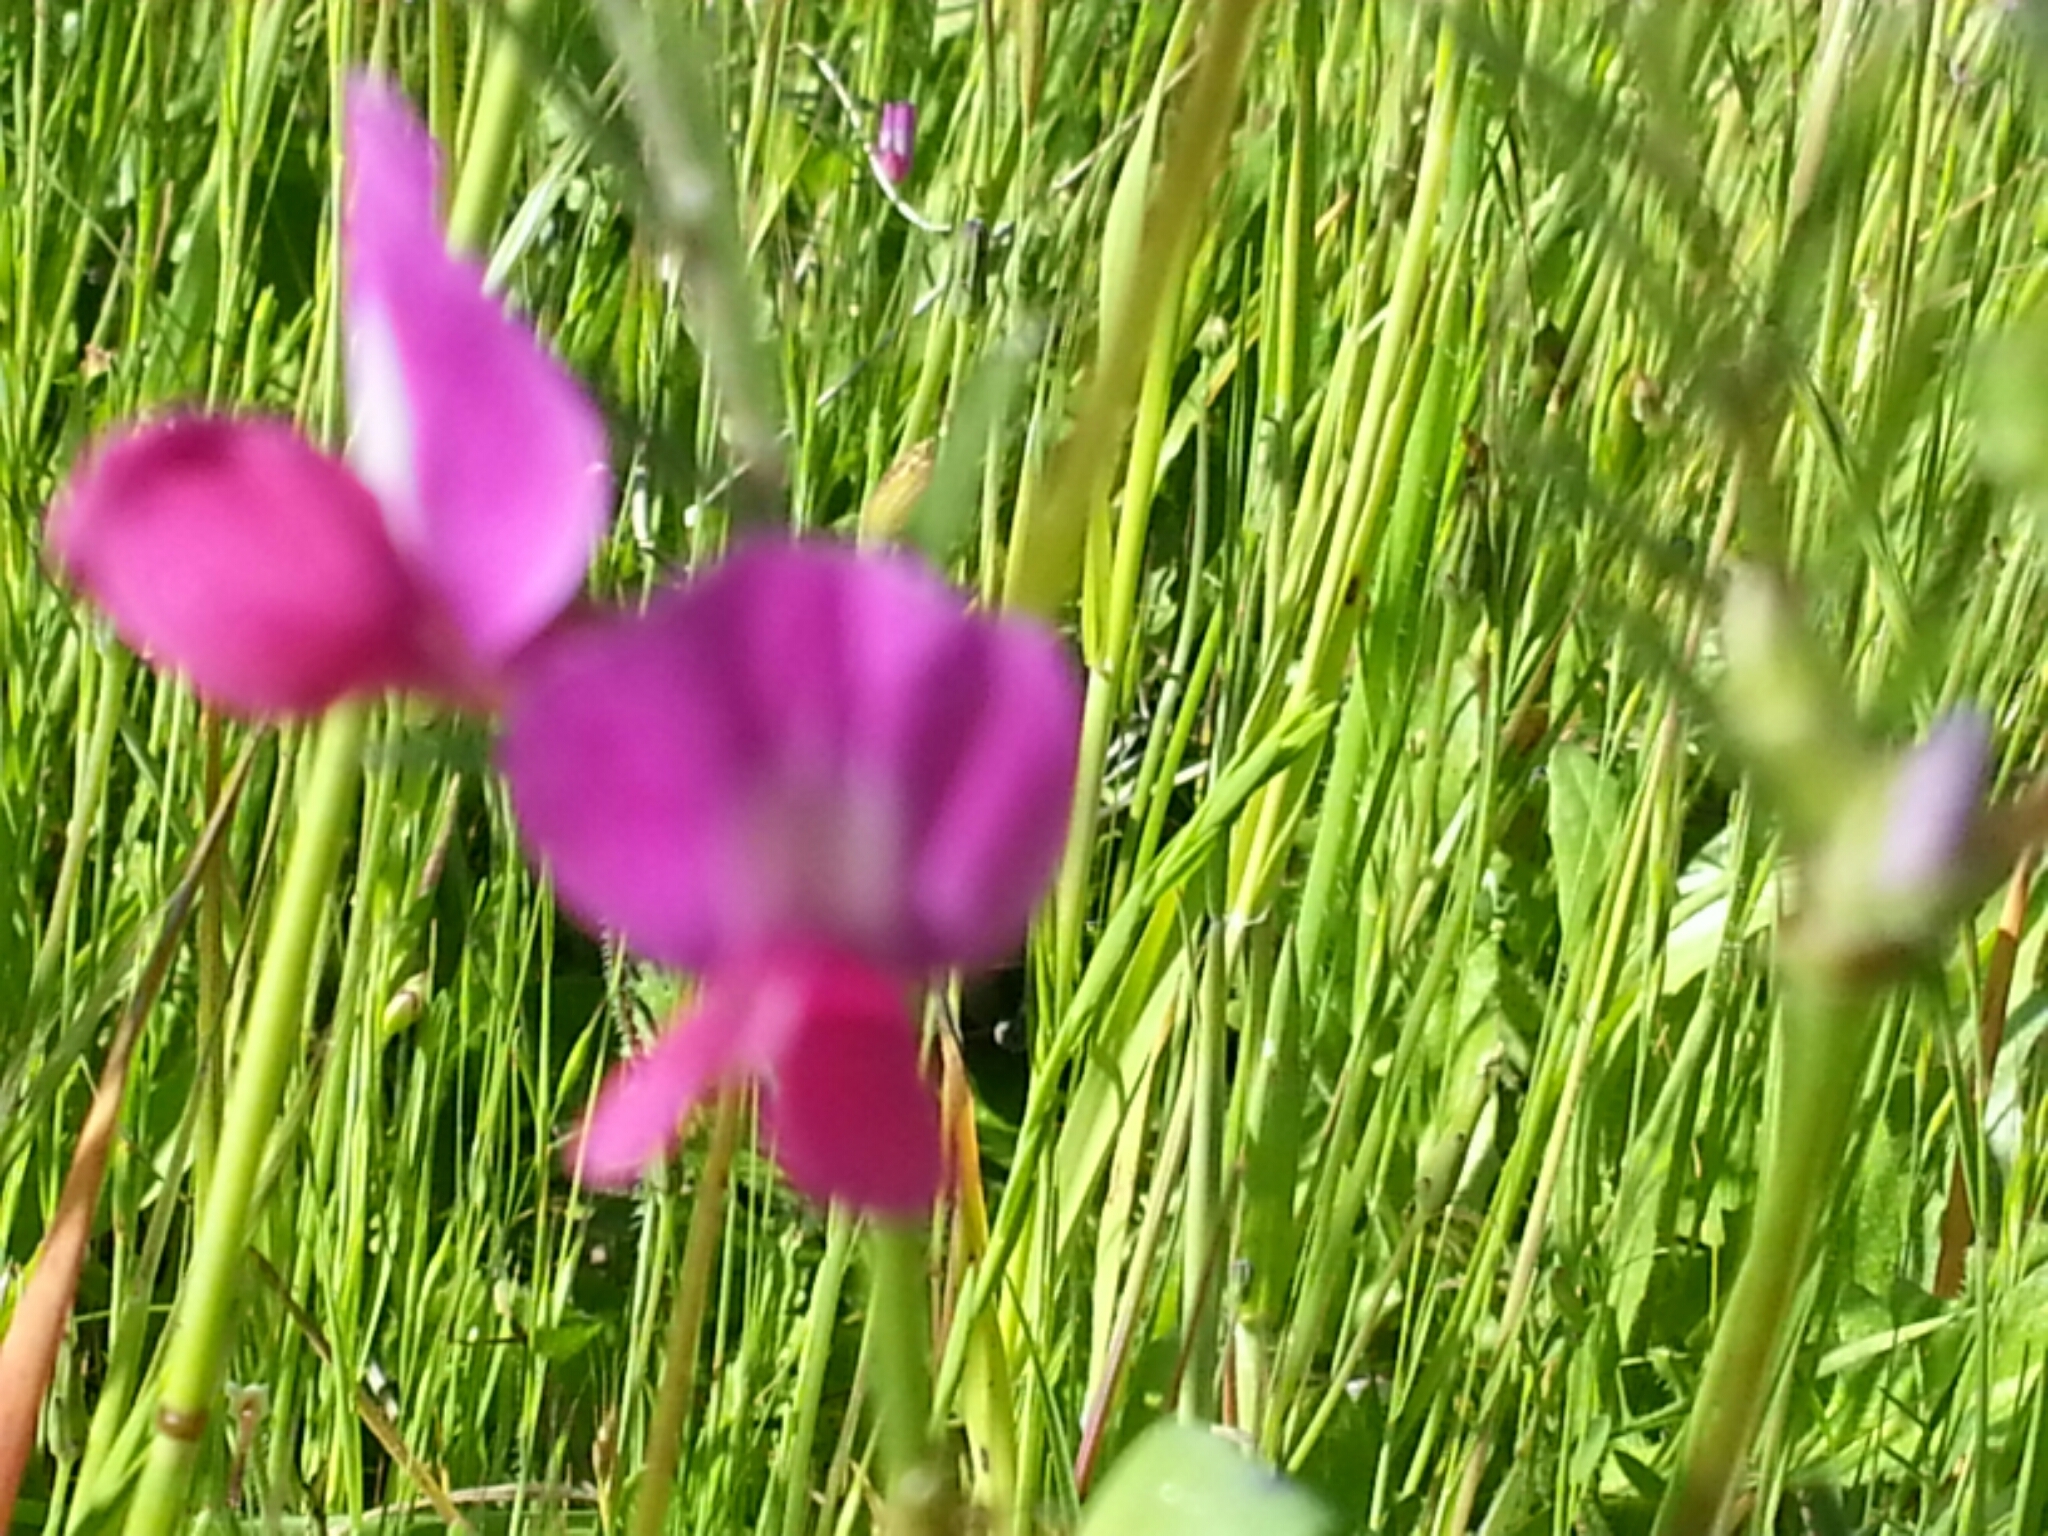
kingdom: Plantae
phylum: Tracheophyta
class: Magnoliopsida
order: Fabales
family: Fabaceae
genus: Vicia
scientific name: Vicia sativa
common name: Garden vetch
